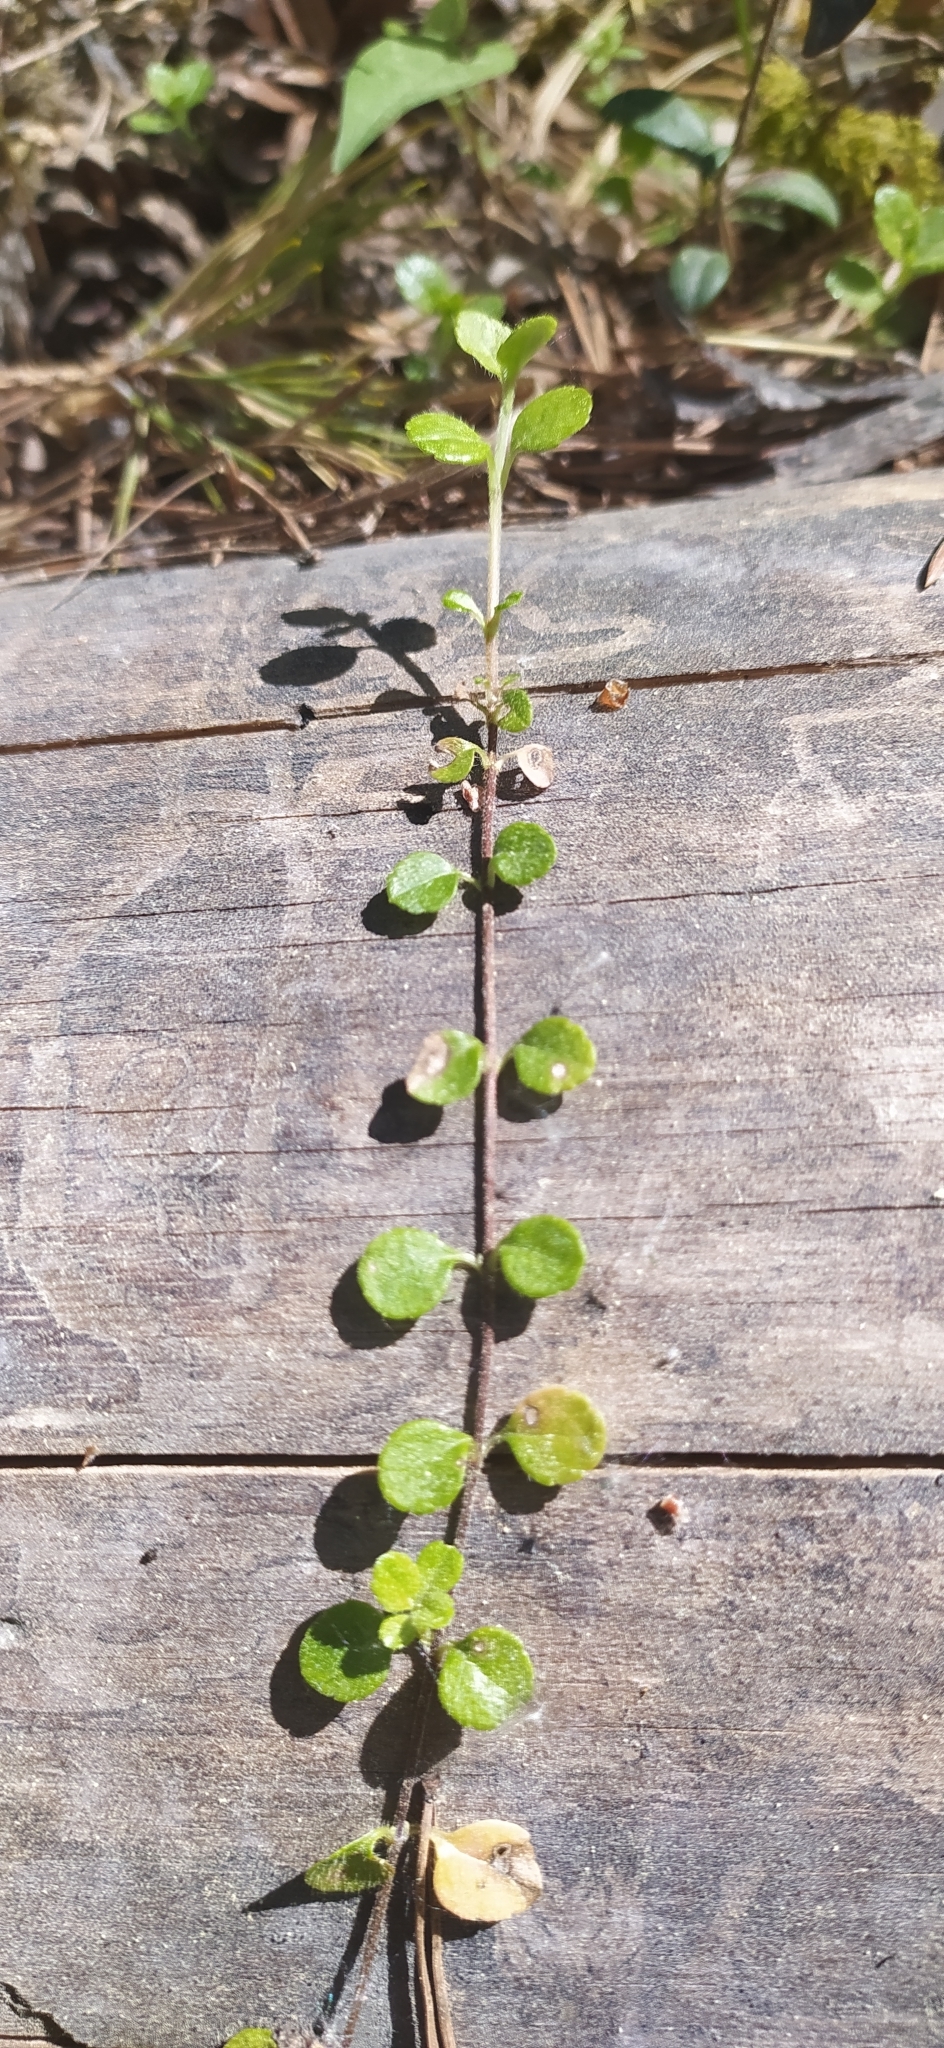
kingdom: Plantae
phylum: Tracheophyta
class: Magnoliopsida
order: Dipsacales
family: Caprifoliaceae
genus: Linnaea
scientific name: Linnaea borealis
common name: Twinflower
